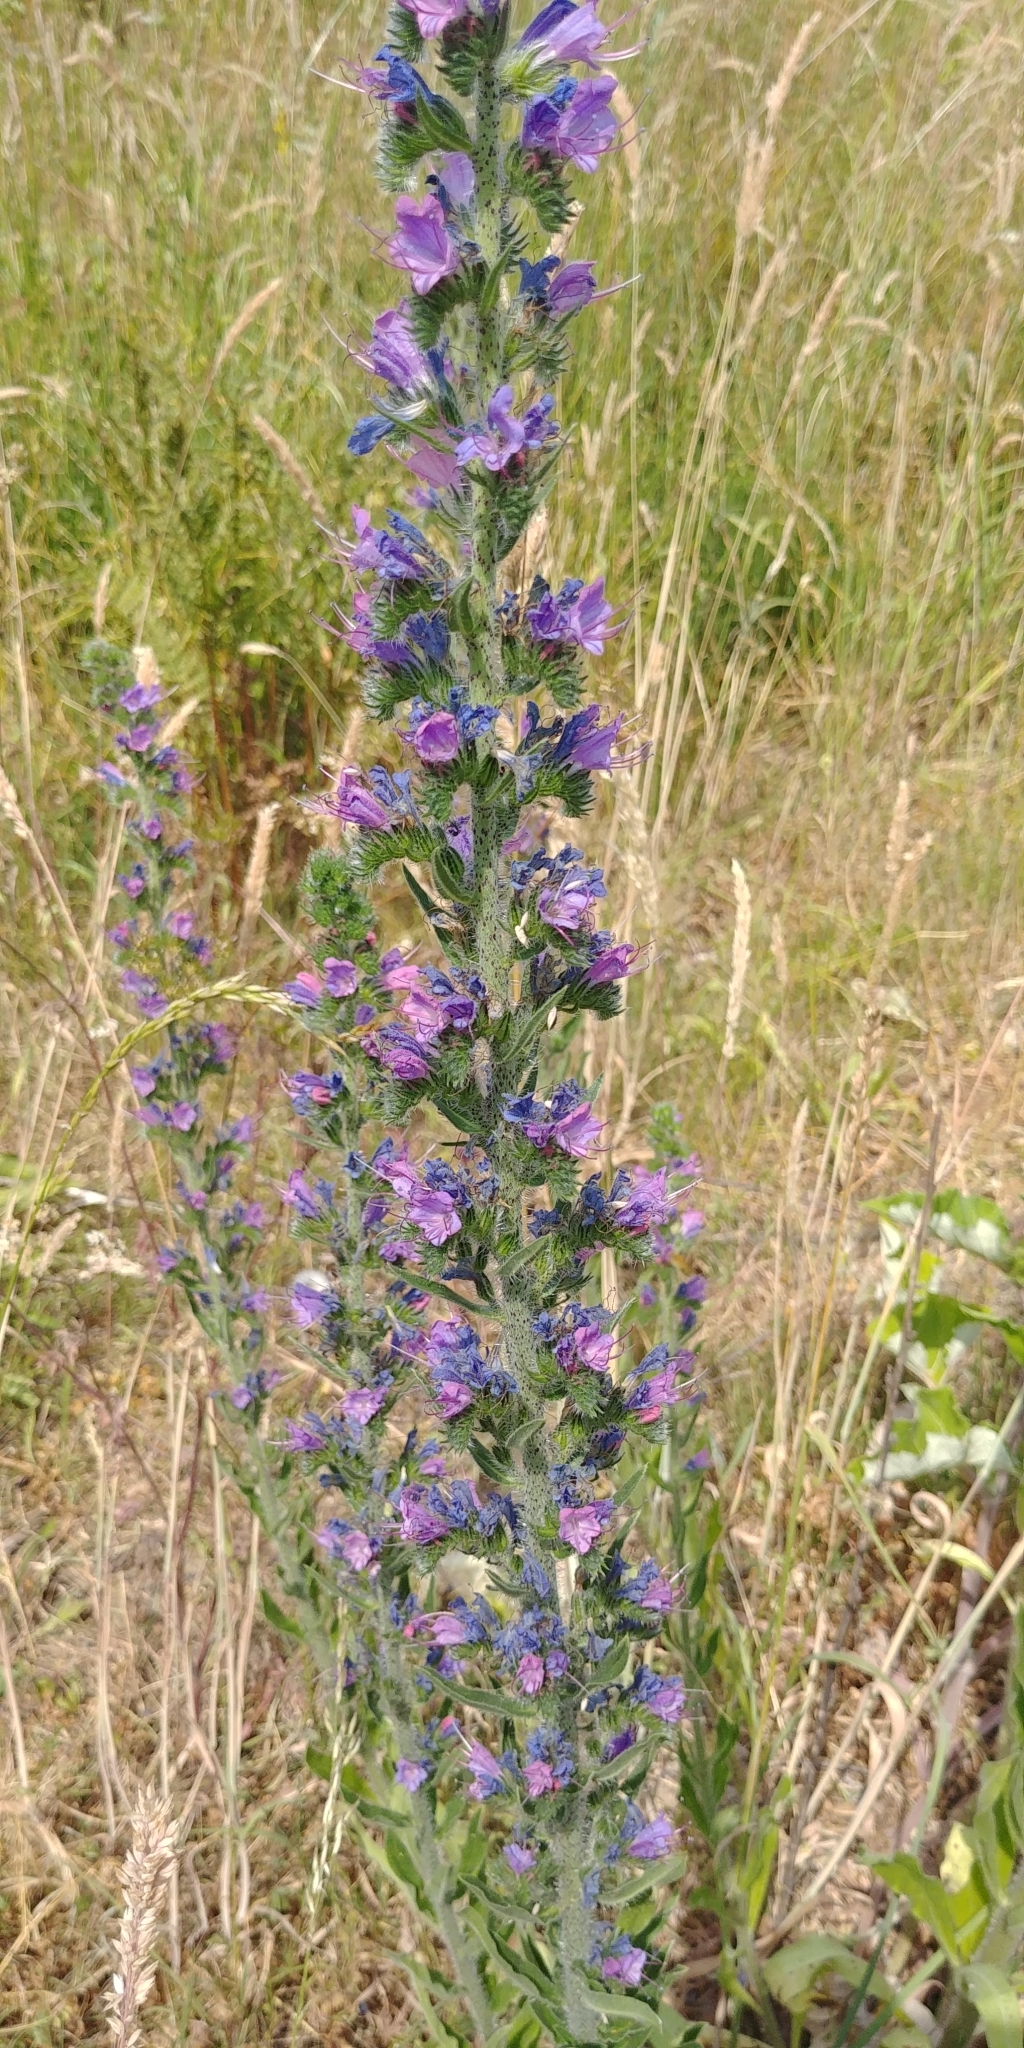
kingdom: Plantae
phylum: Tracheophyta
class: Magnoliopsida
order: Boraginales
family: Boraginaceae
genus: Echium
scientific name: Echium vulgare
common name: Common viper's bugloss
